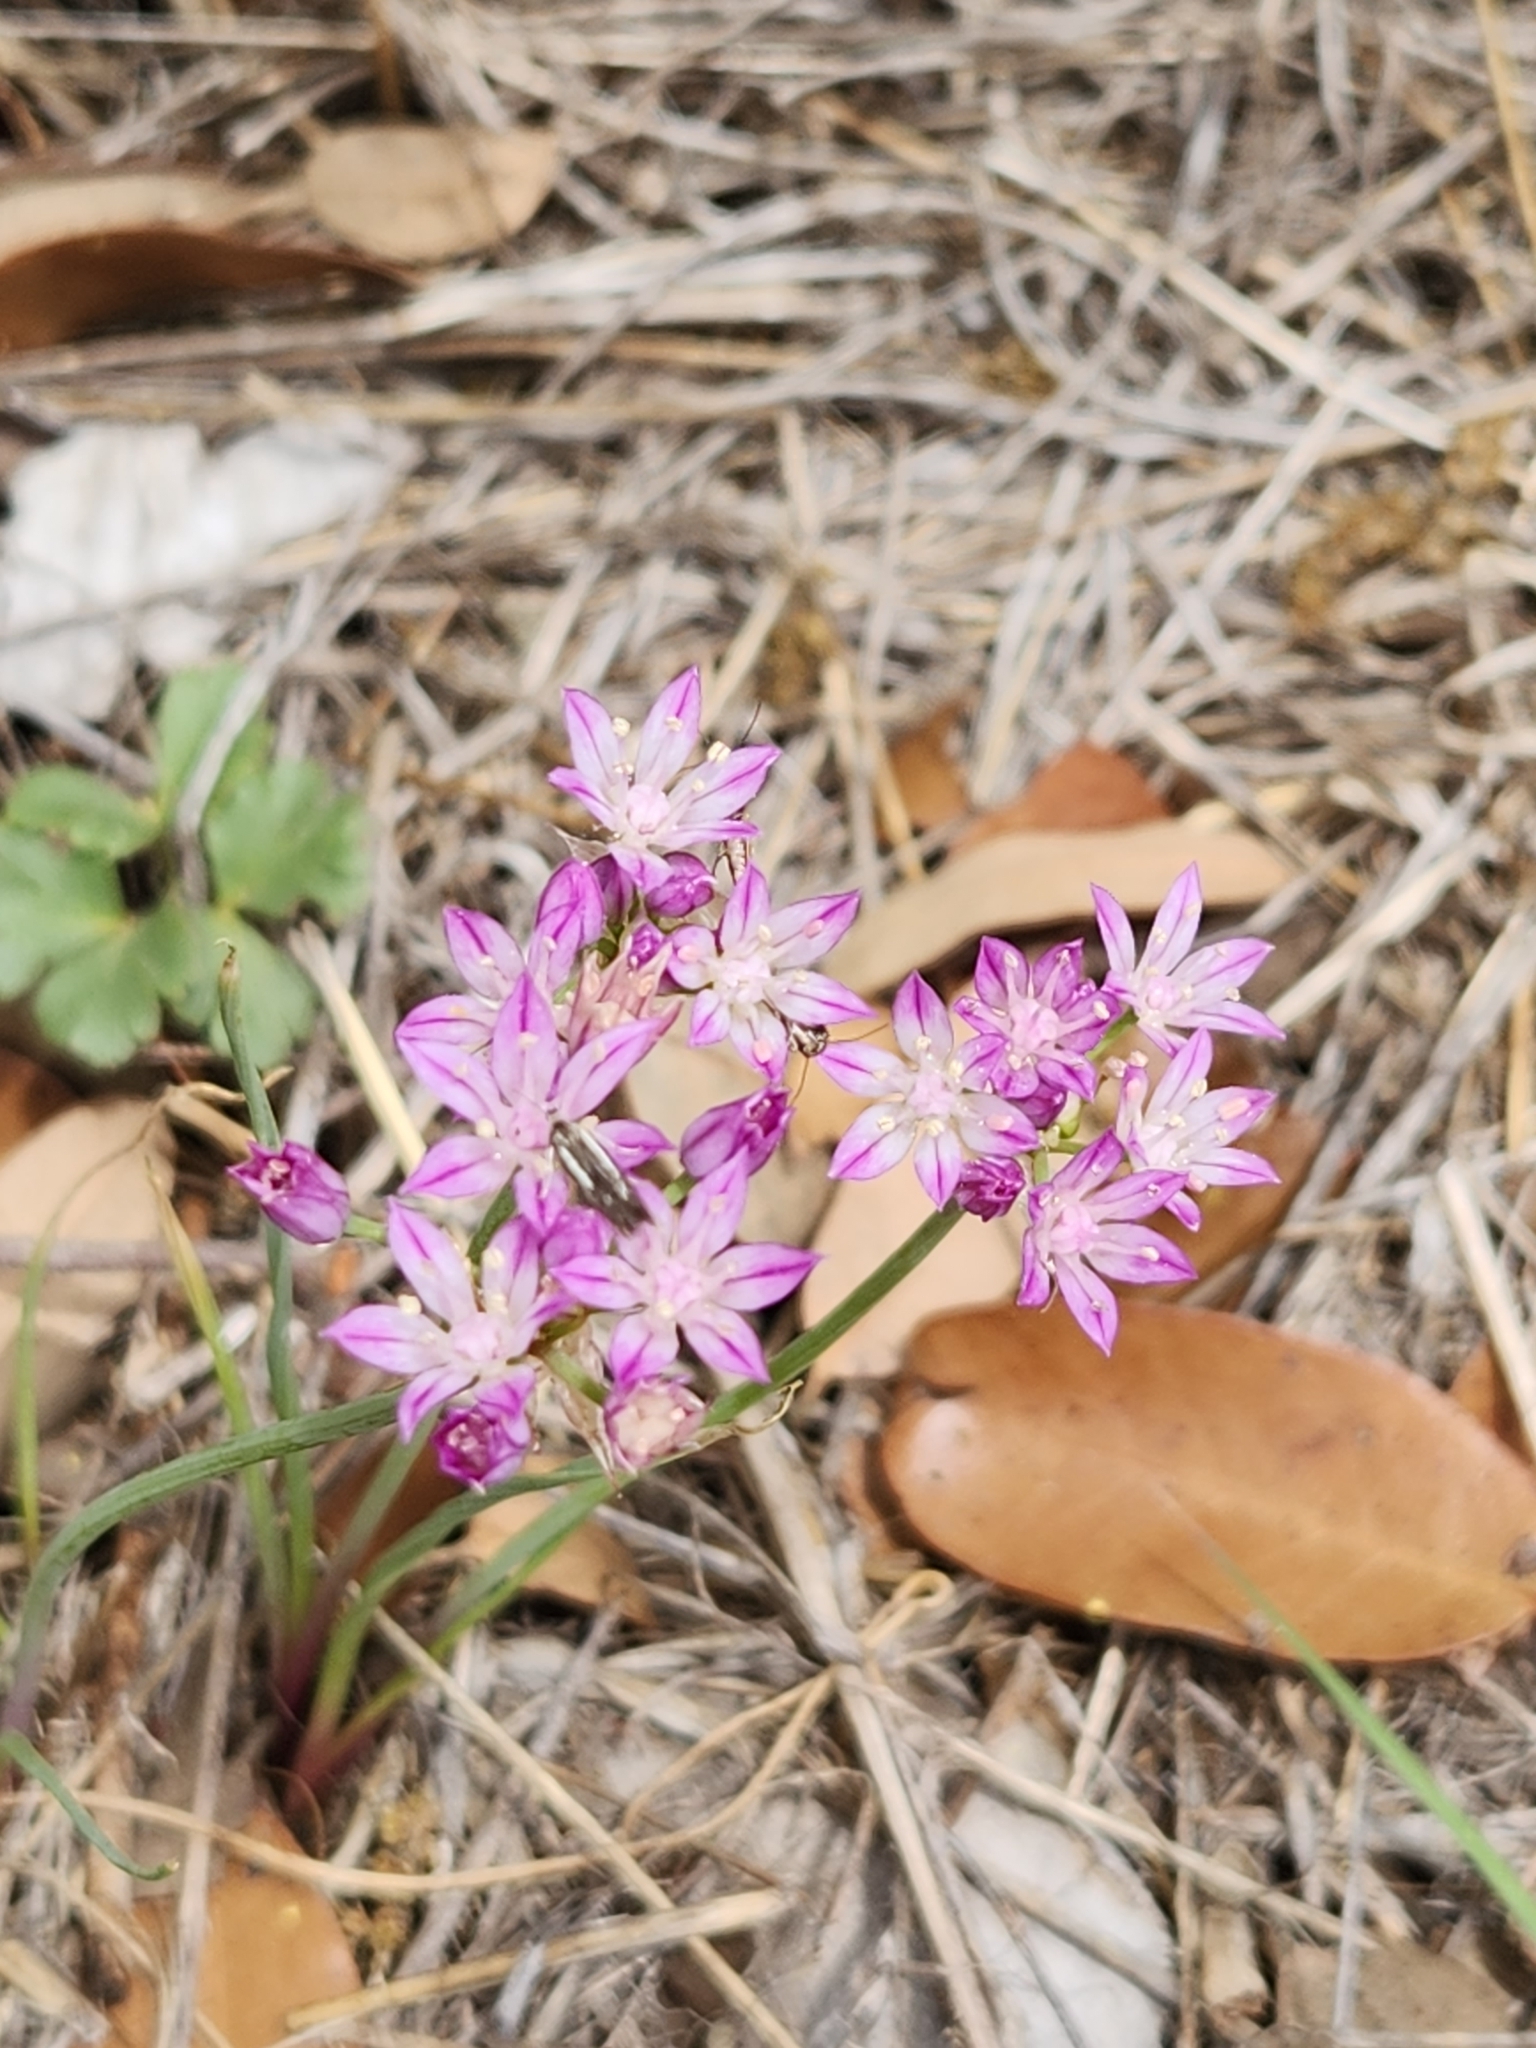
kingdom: Plantae
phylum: Tracheophyta
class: Liliopsida
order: Asparagales
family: Amaryllidaceae
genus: Allium
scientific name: Allium drummondii
